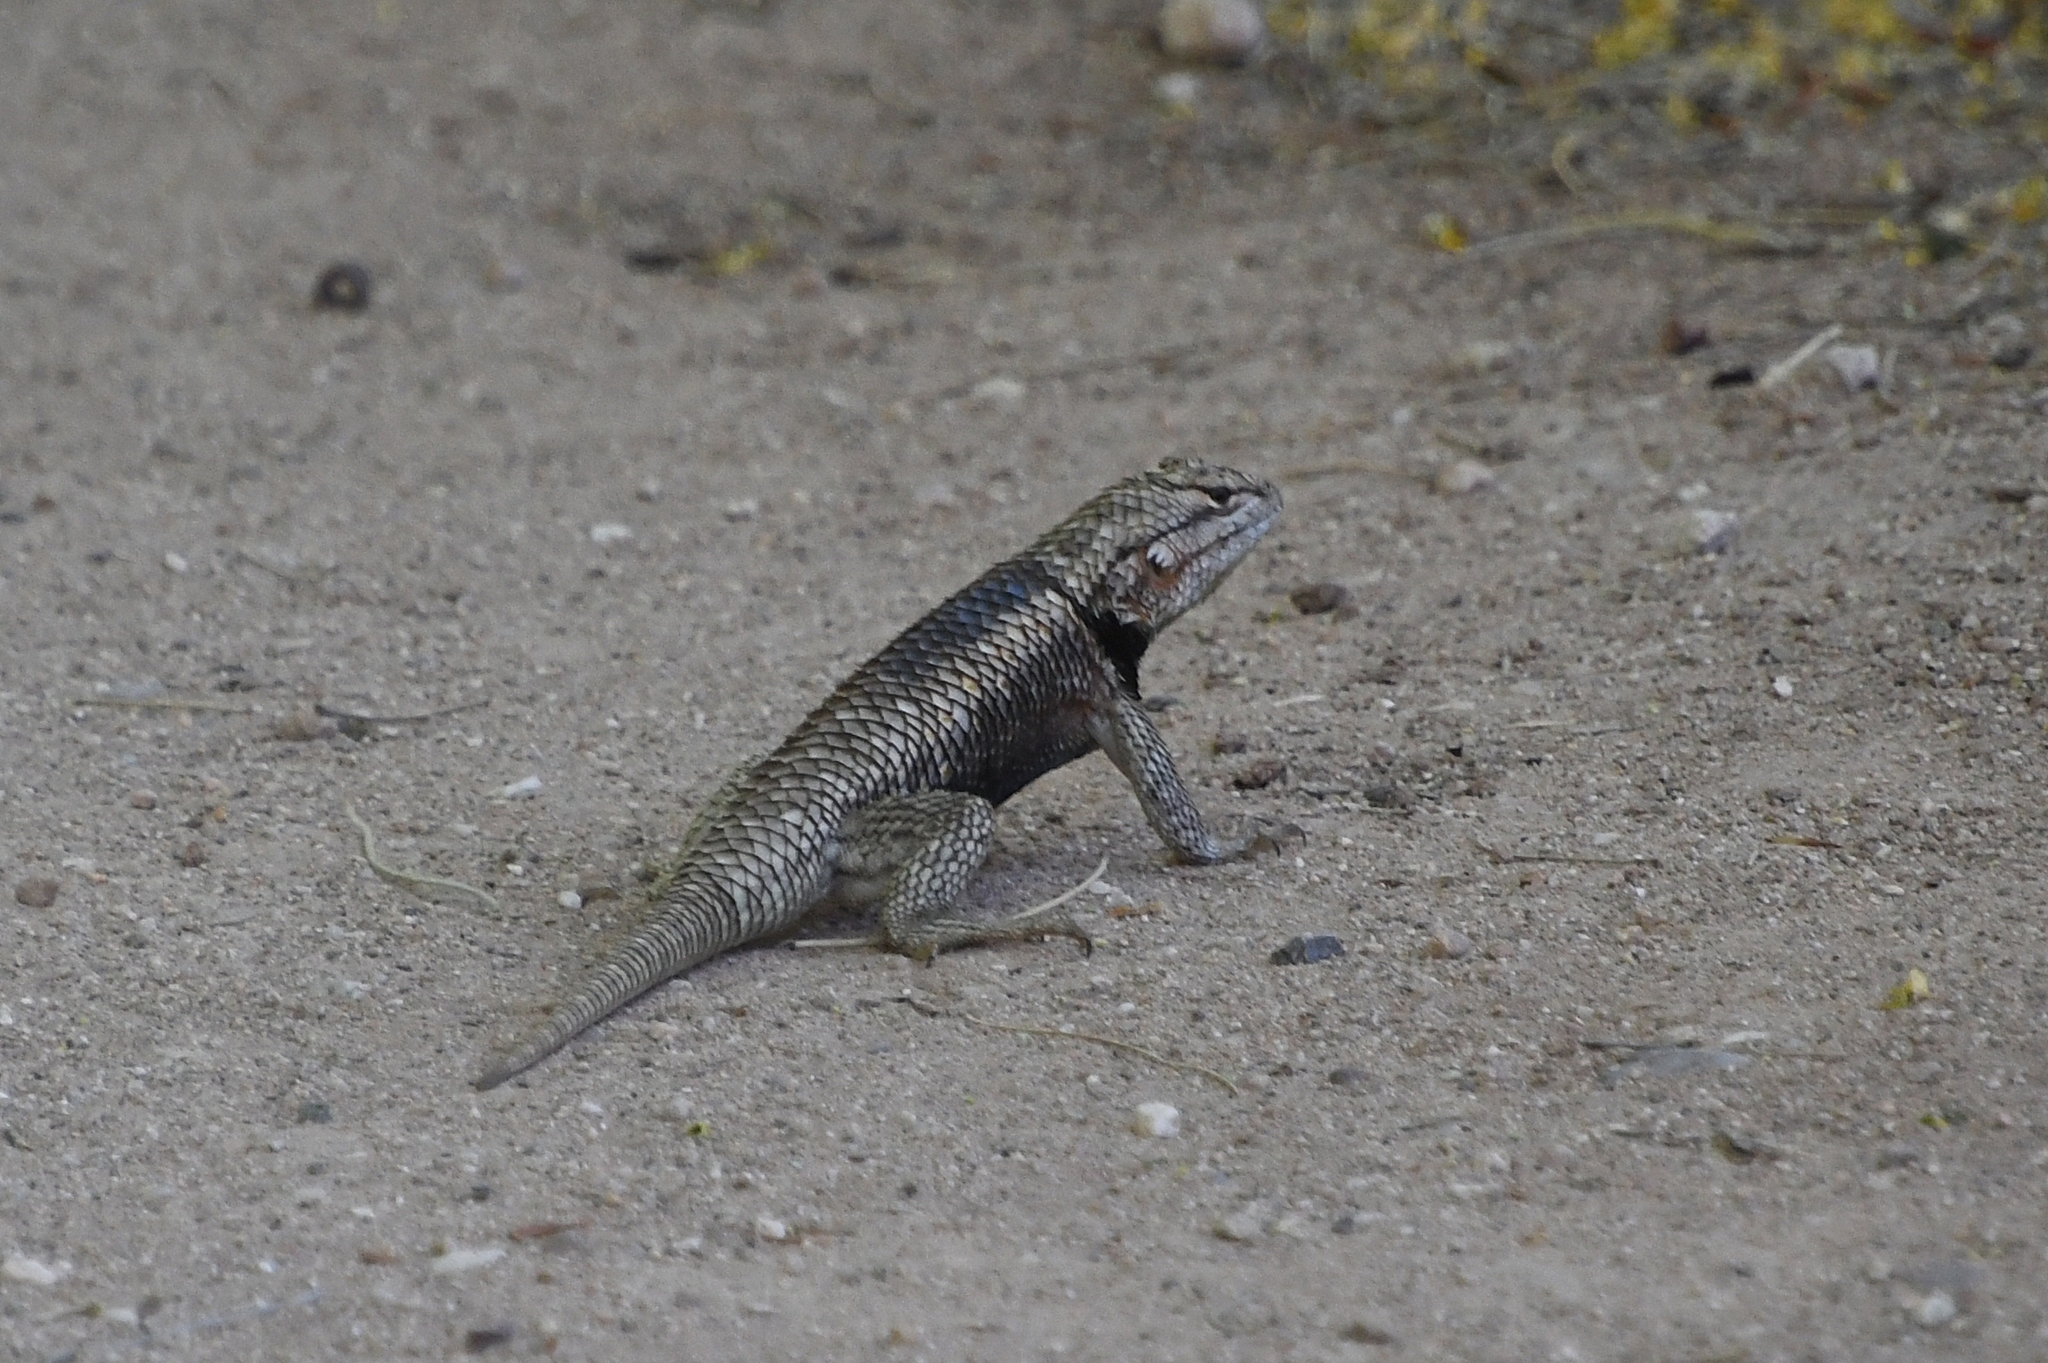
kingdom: Animalia
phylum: Chordata
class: Squamata
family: Phrynosomatidae
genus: Sceloporus
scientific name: Sceloporus magister
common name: Desert spiny lizard
